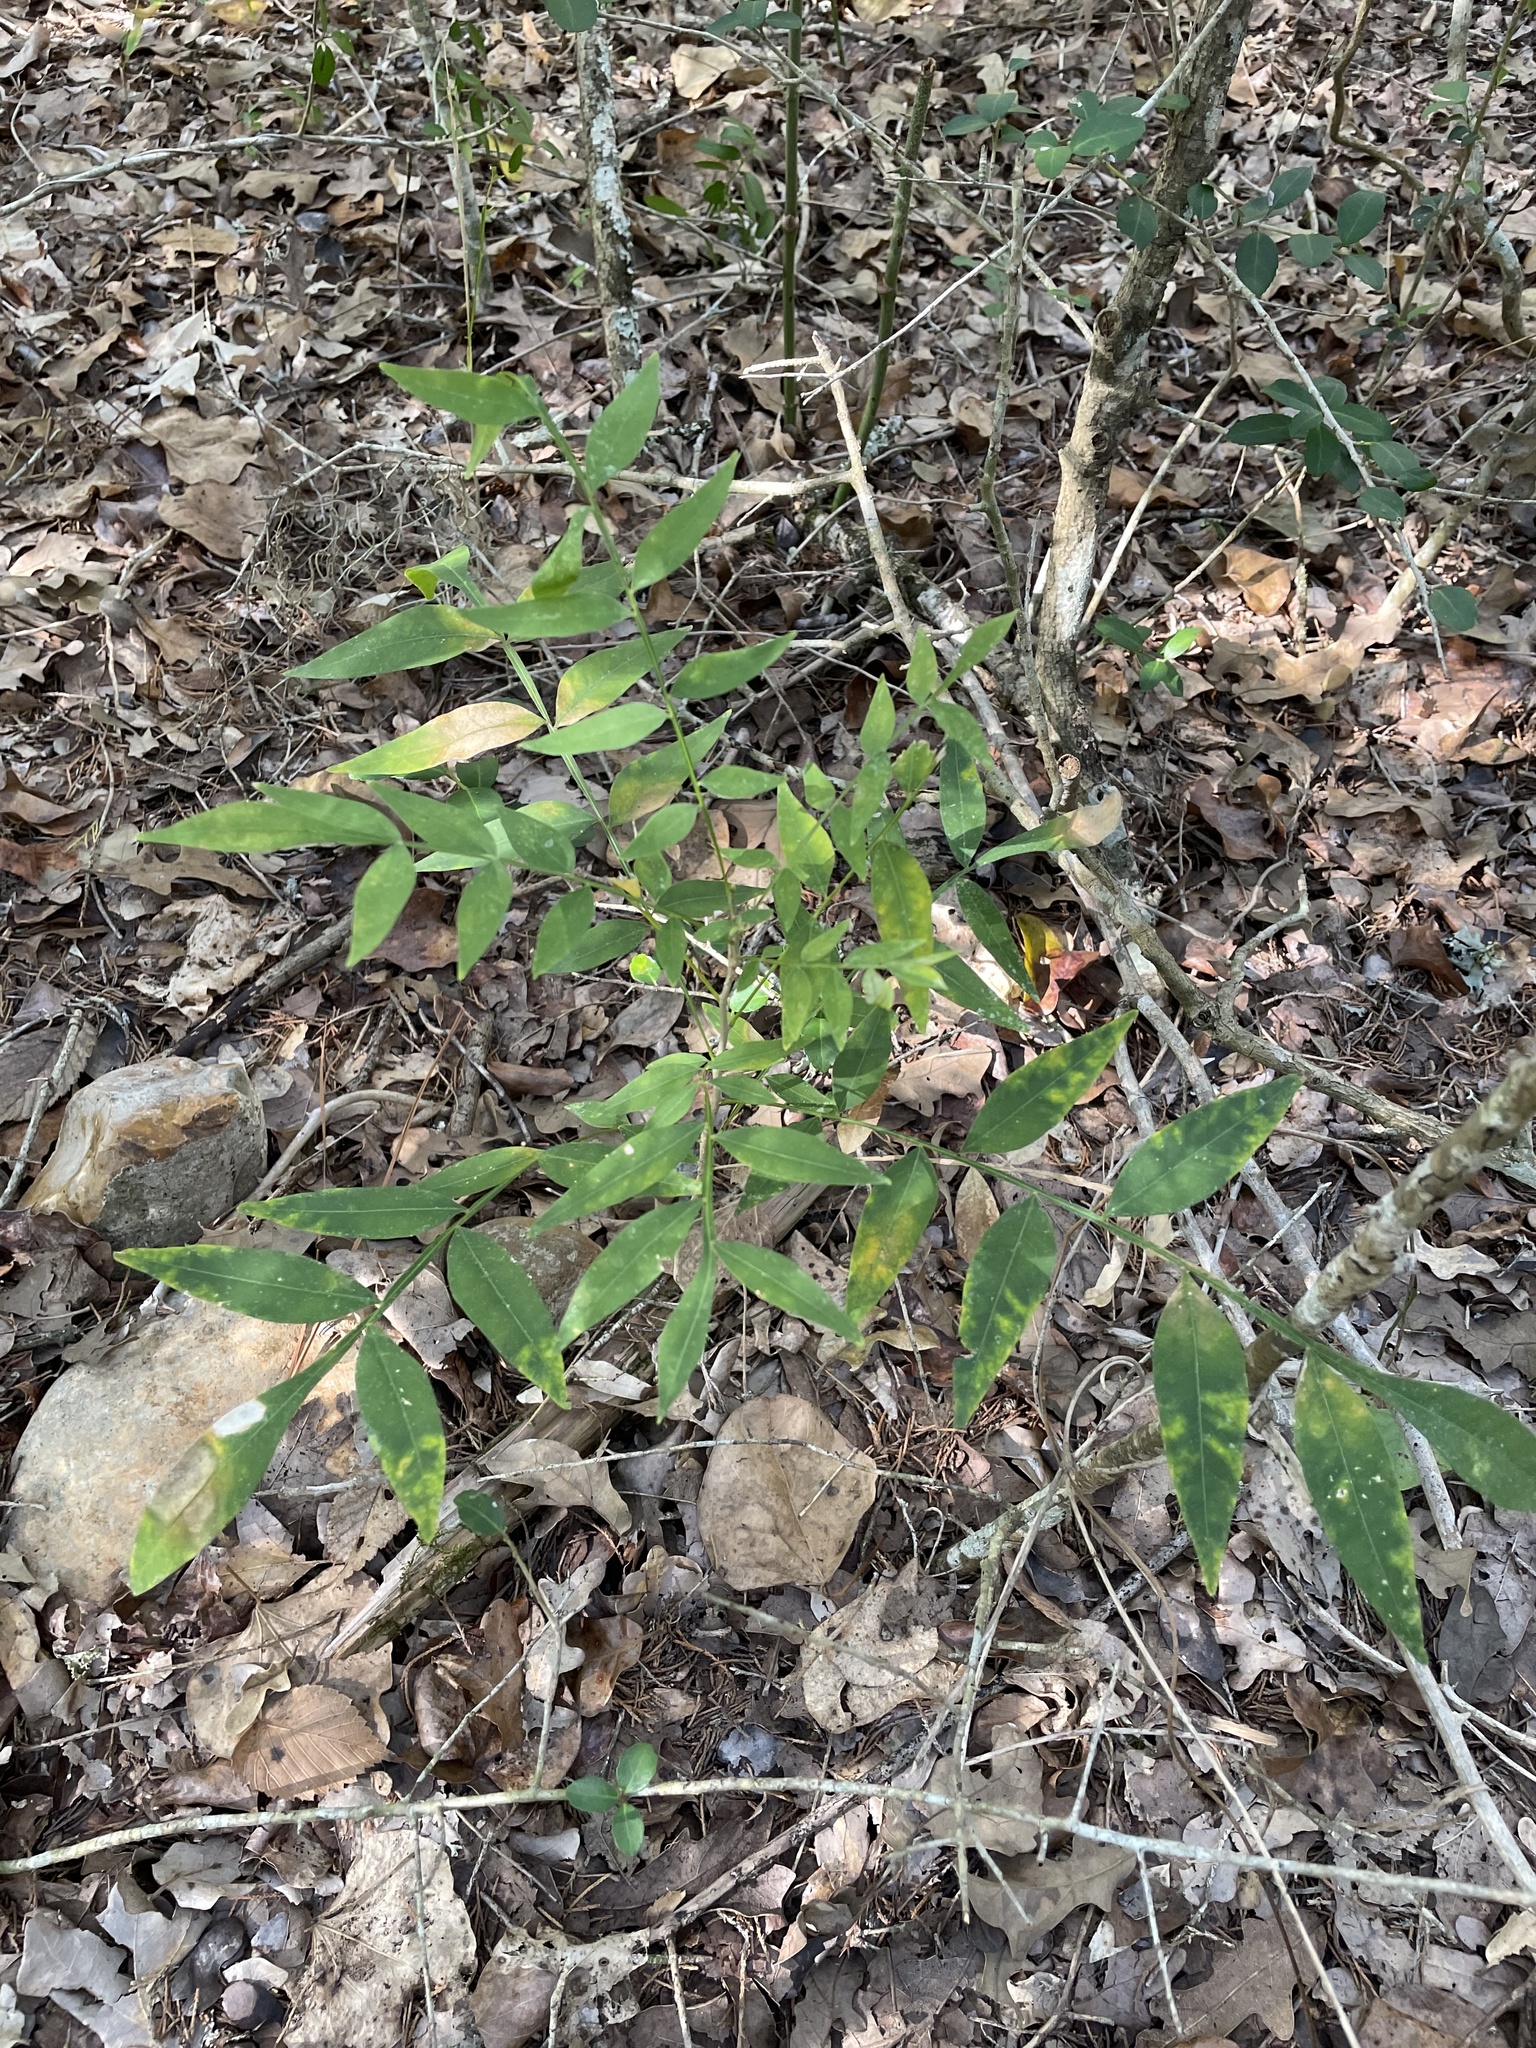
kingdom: Plantae
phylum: Tracheophyta
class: Magnoliopsida
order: Sapindales
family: Sapindaceae
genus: Sapindus
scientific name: Sapindus drummondii
